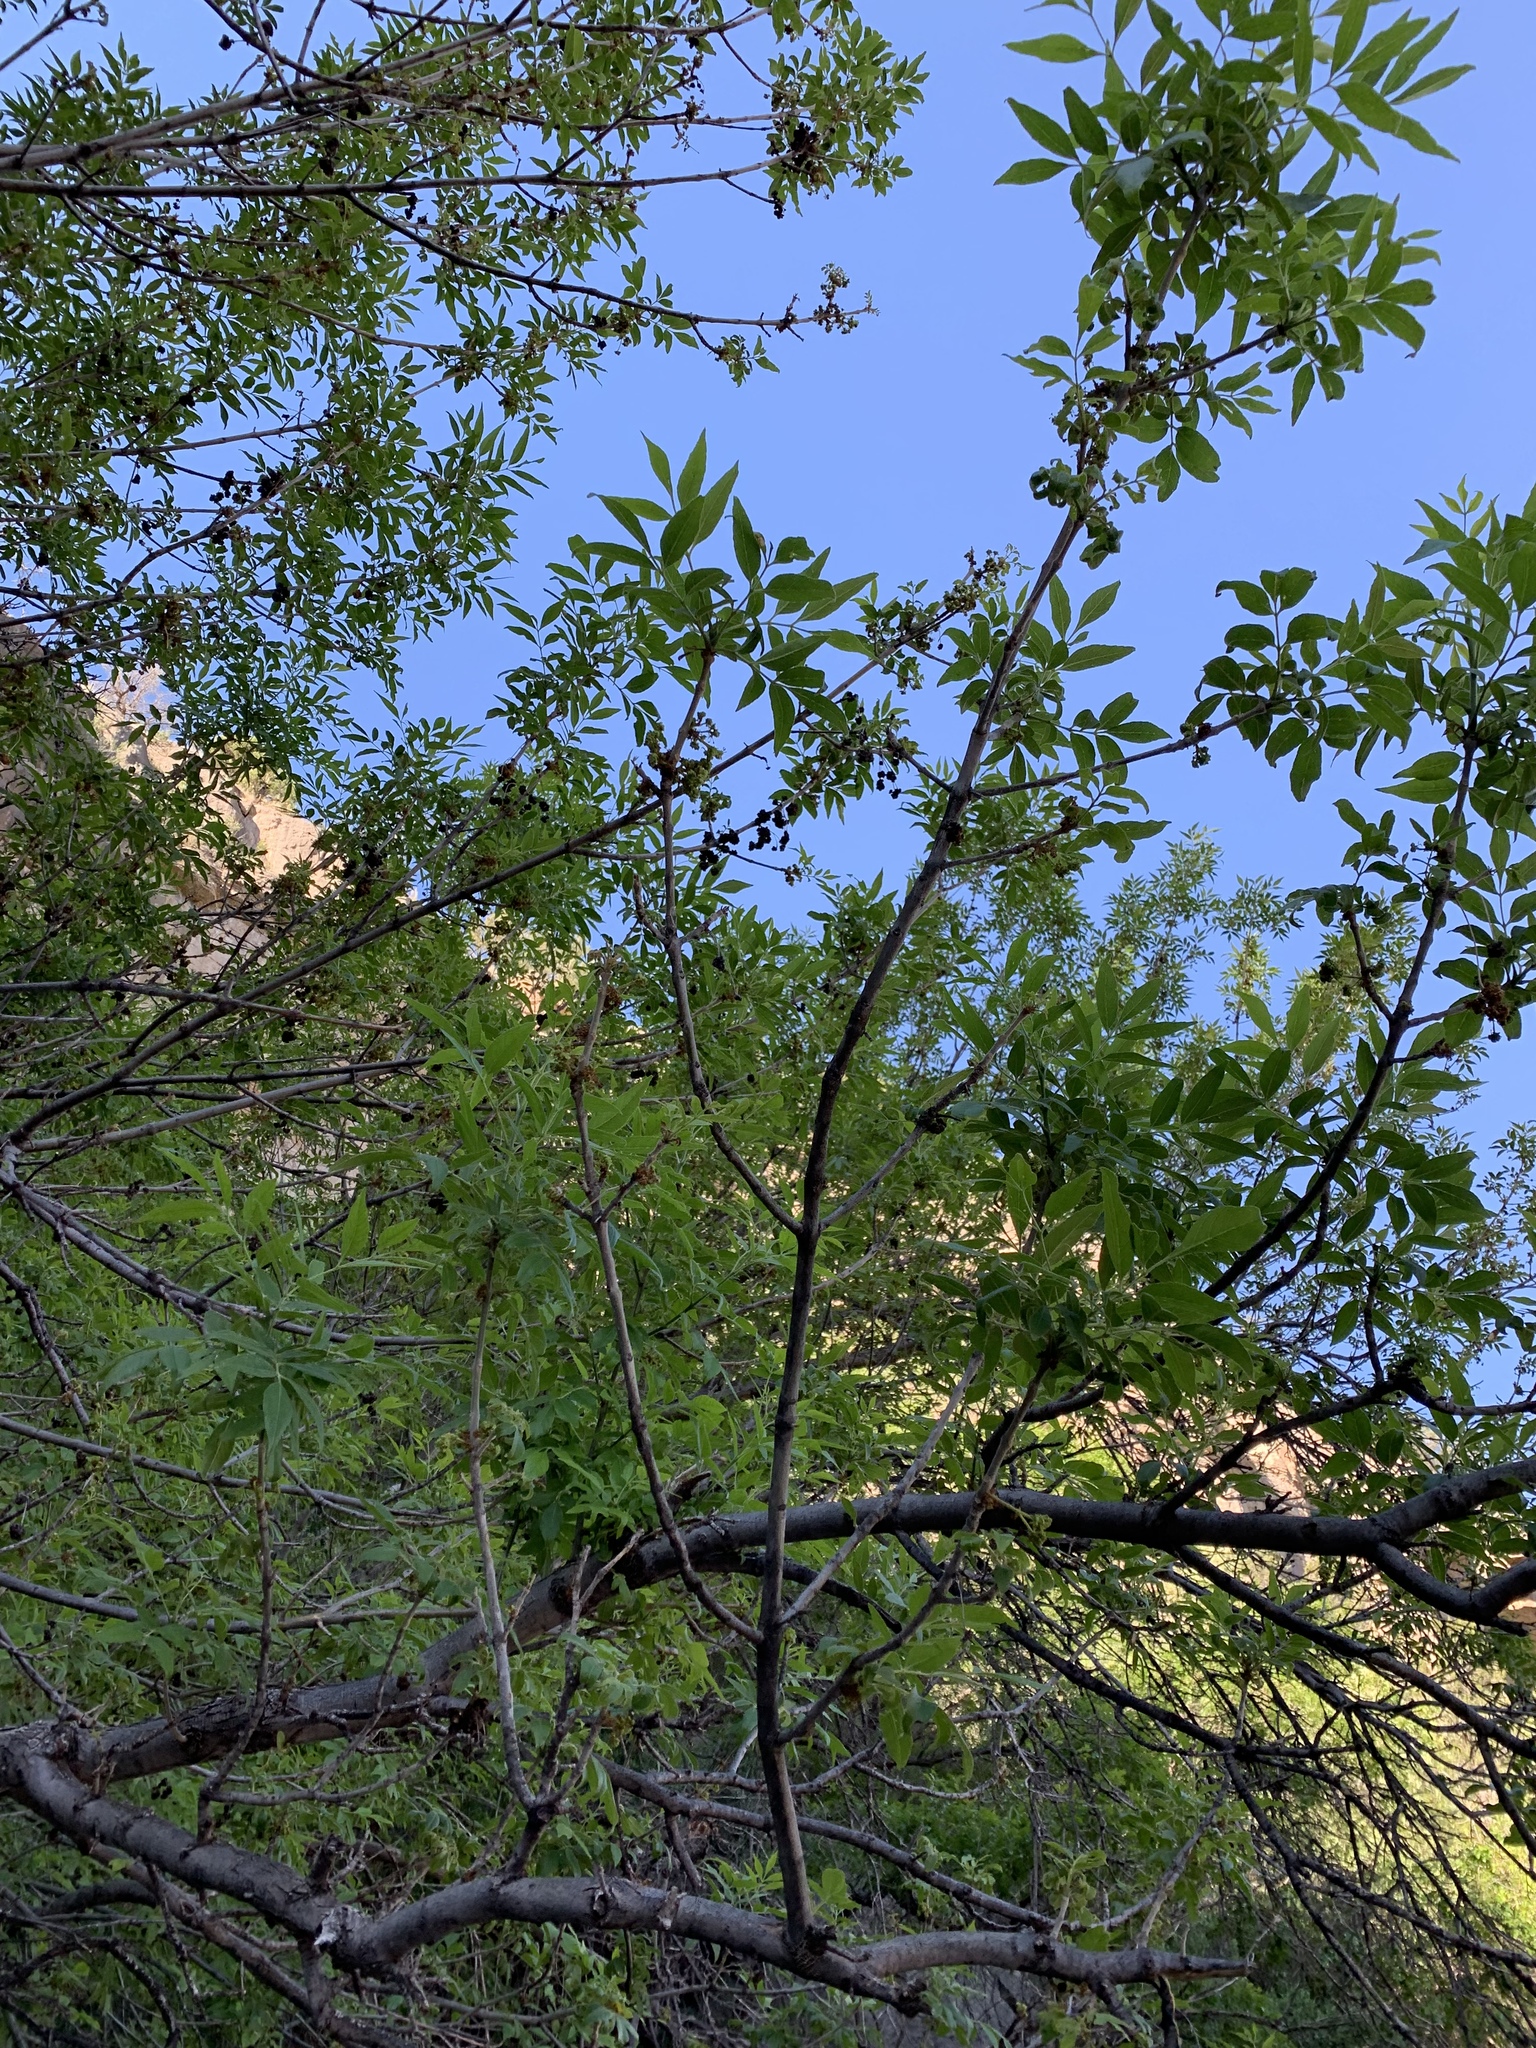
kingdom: Plantae
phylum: Tracheophyta
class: Magnoliopsida
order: Lamiales
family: Oleaceae
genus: Fraxinus
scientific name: Fraxinus velutina
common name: Arizon ash
